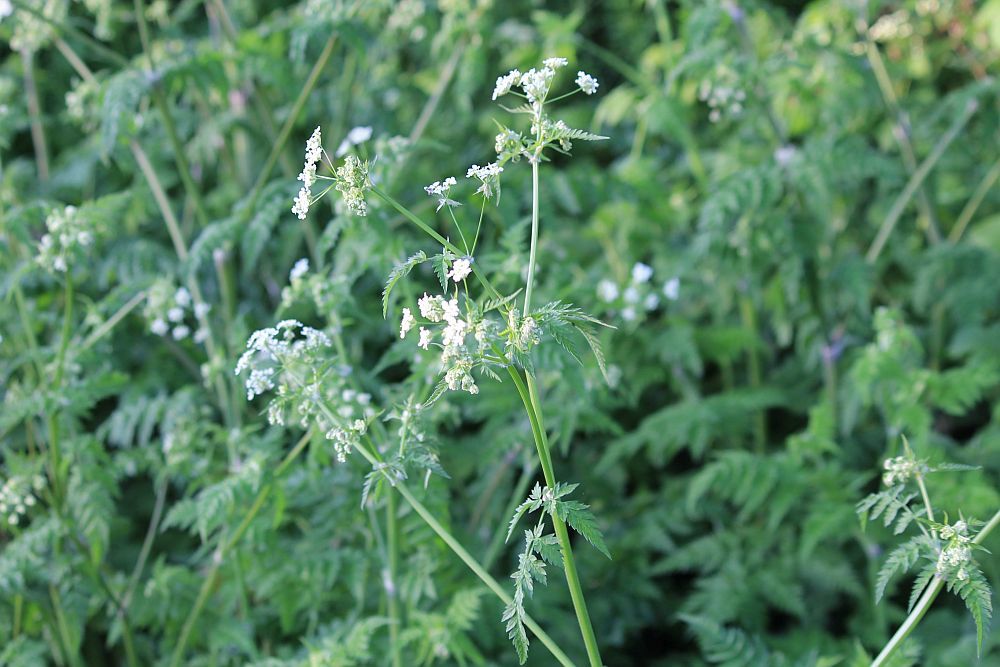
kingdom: Plantae
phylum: Tracheophyta
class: Magnoliopsida
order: Apiales
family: Apiaceae
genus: Anthriscus
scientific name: Anthriscus sylvestris
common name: Cow parsley
